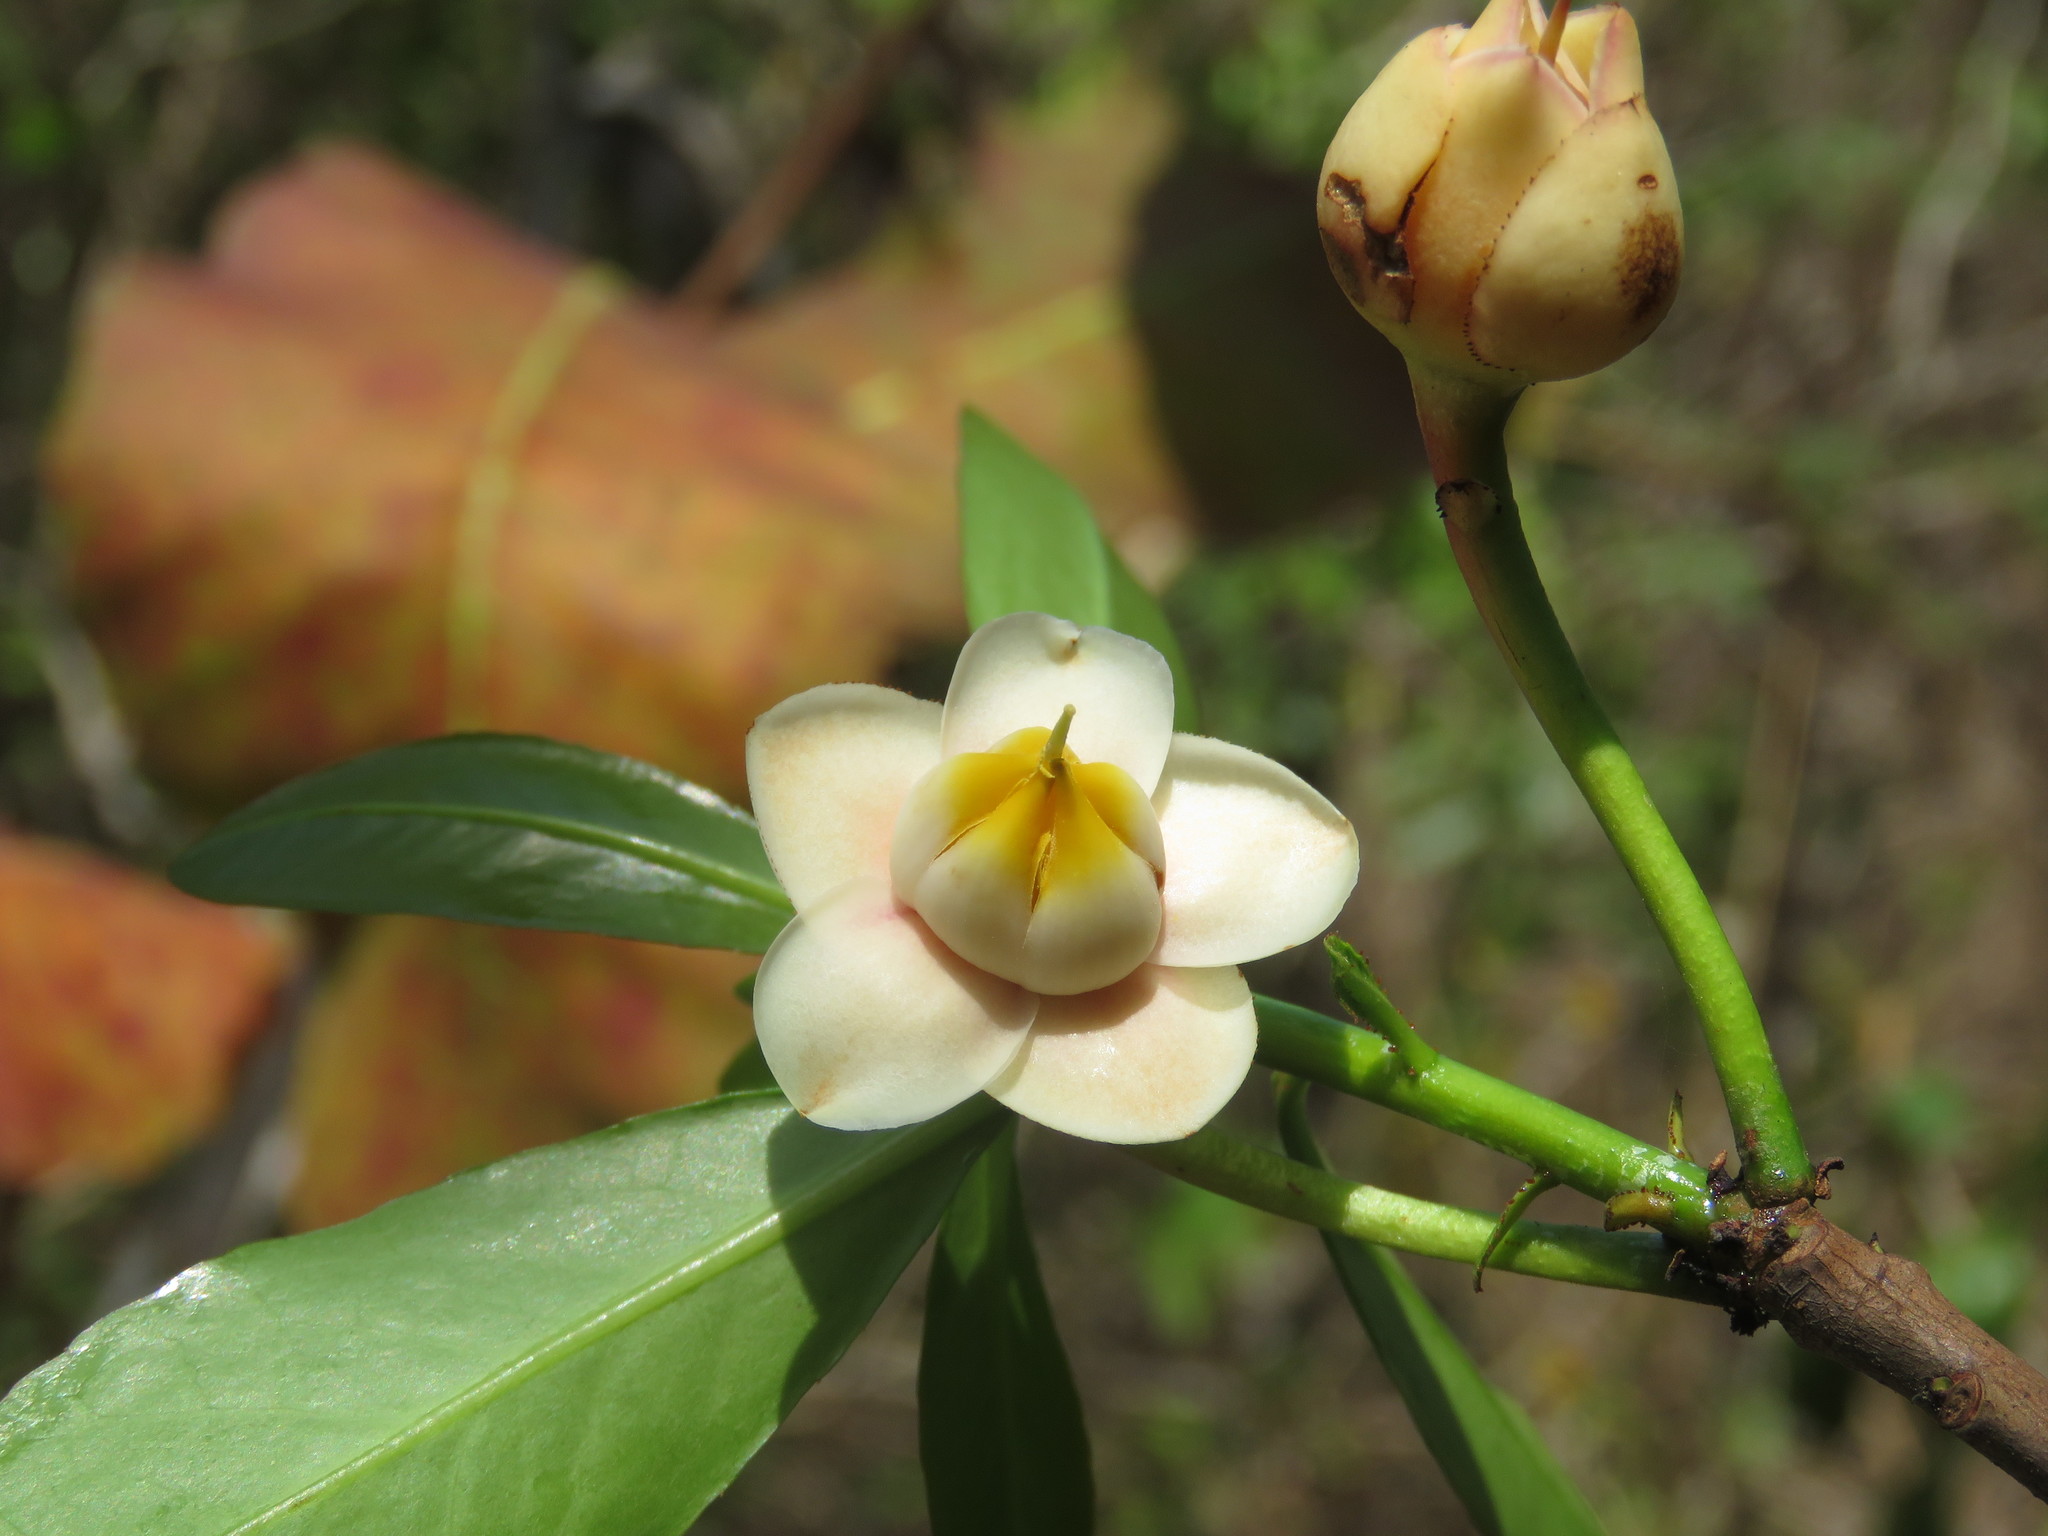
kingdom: Plantae
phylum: Tracheophyta
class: Magnoliopsida
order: Ericales
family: Pentaphylacaceae
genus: Ternstroemia
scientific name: Ternstroemia lineata
